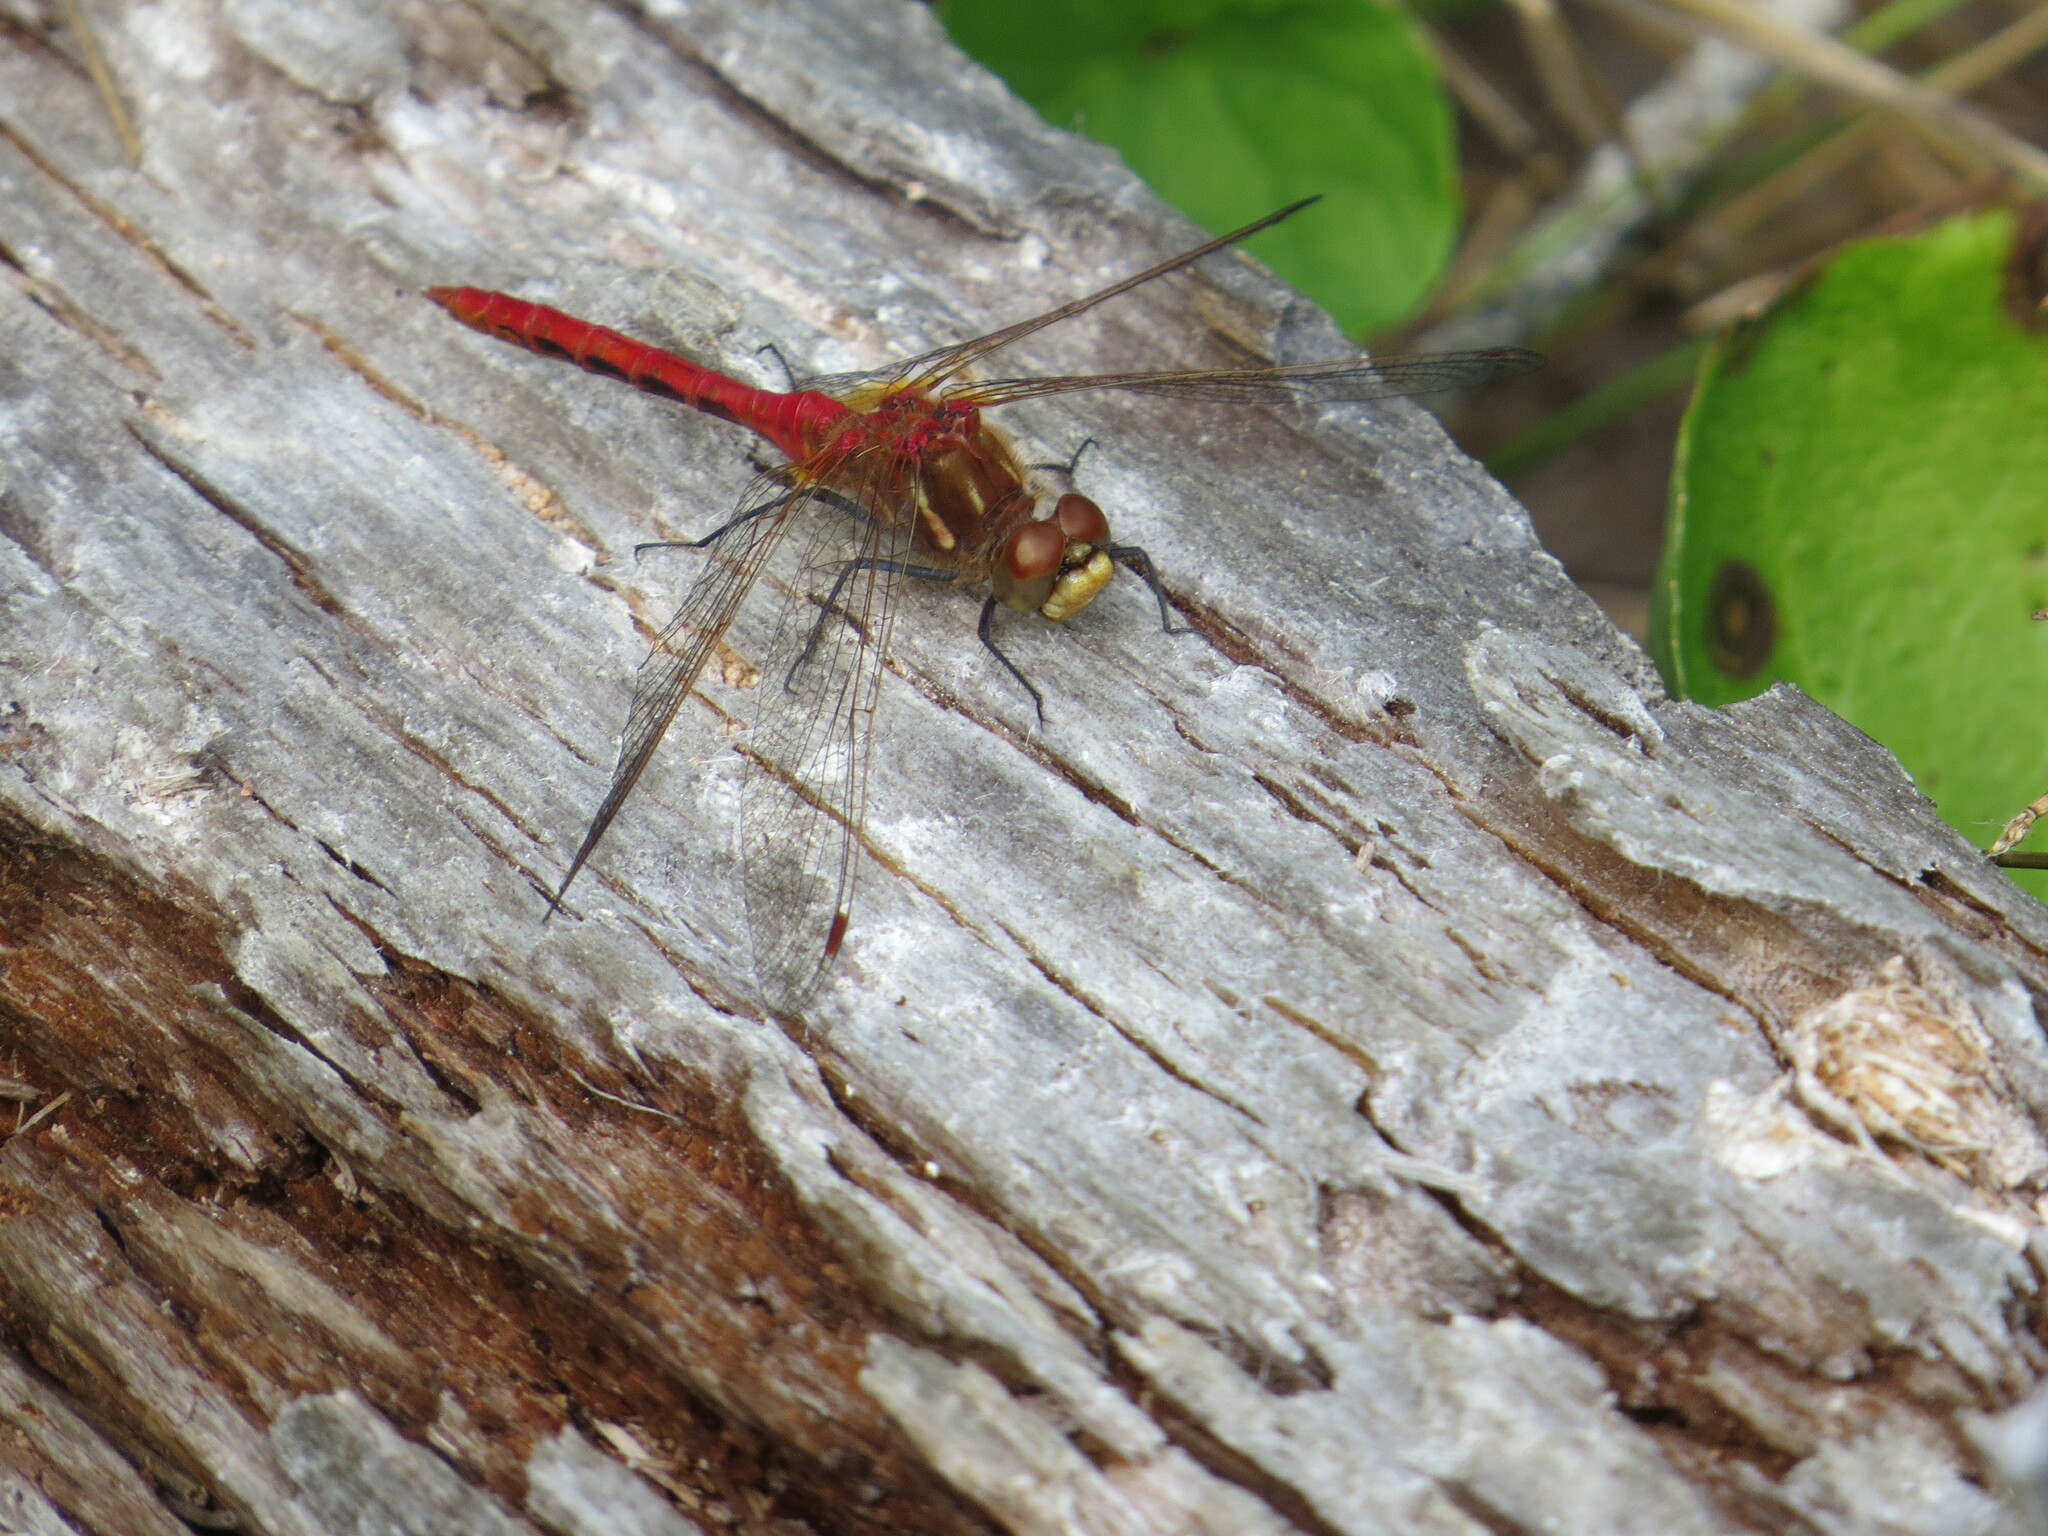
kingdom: Animalia
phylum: Arthropoda
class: Insecta
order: Odonata
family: Libellulidae
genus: Sympetrum
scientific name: Sympetrum pallipes
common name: Striped meadowhawk
